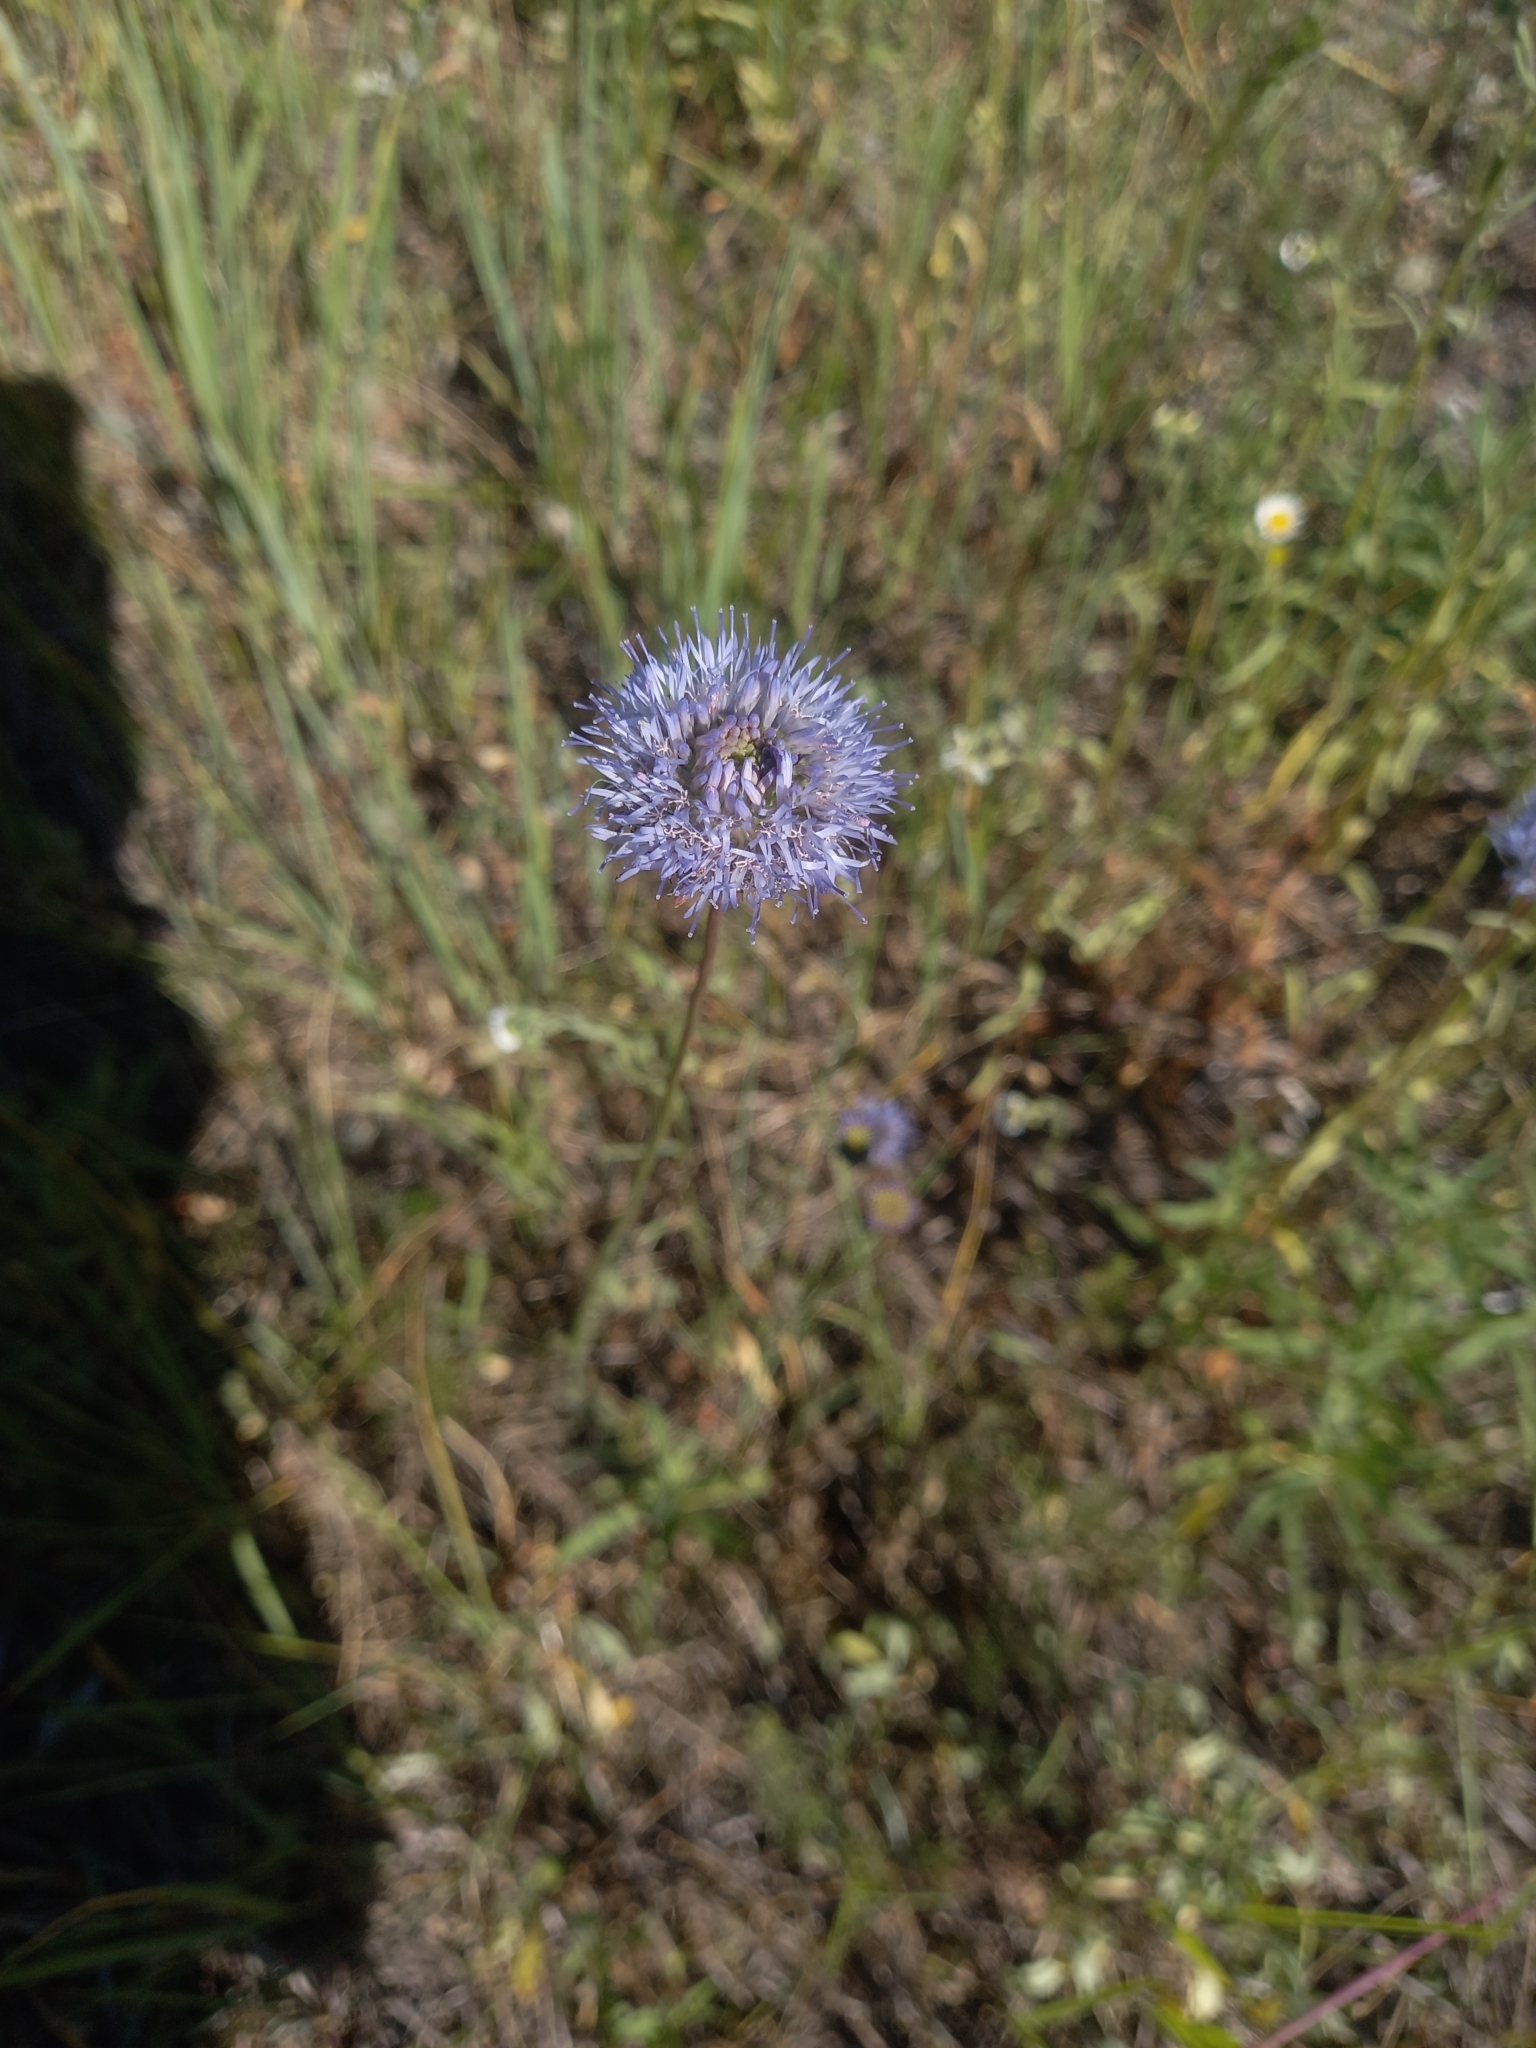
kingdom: Plantae
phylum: Tracheophyta
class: Magnoliopsida
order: Asterales
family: Campanulaceae
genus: Jasione
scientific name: Jasione montana
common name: Sheep's-bit
